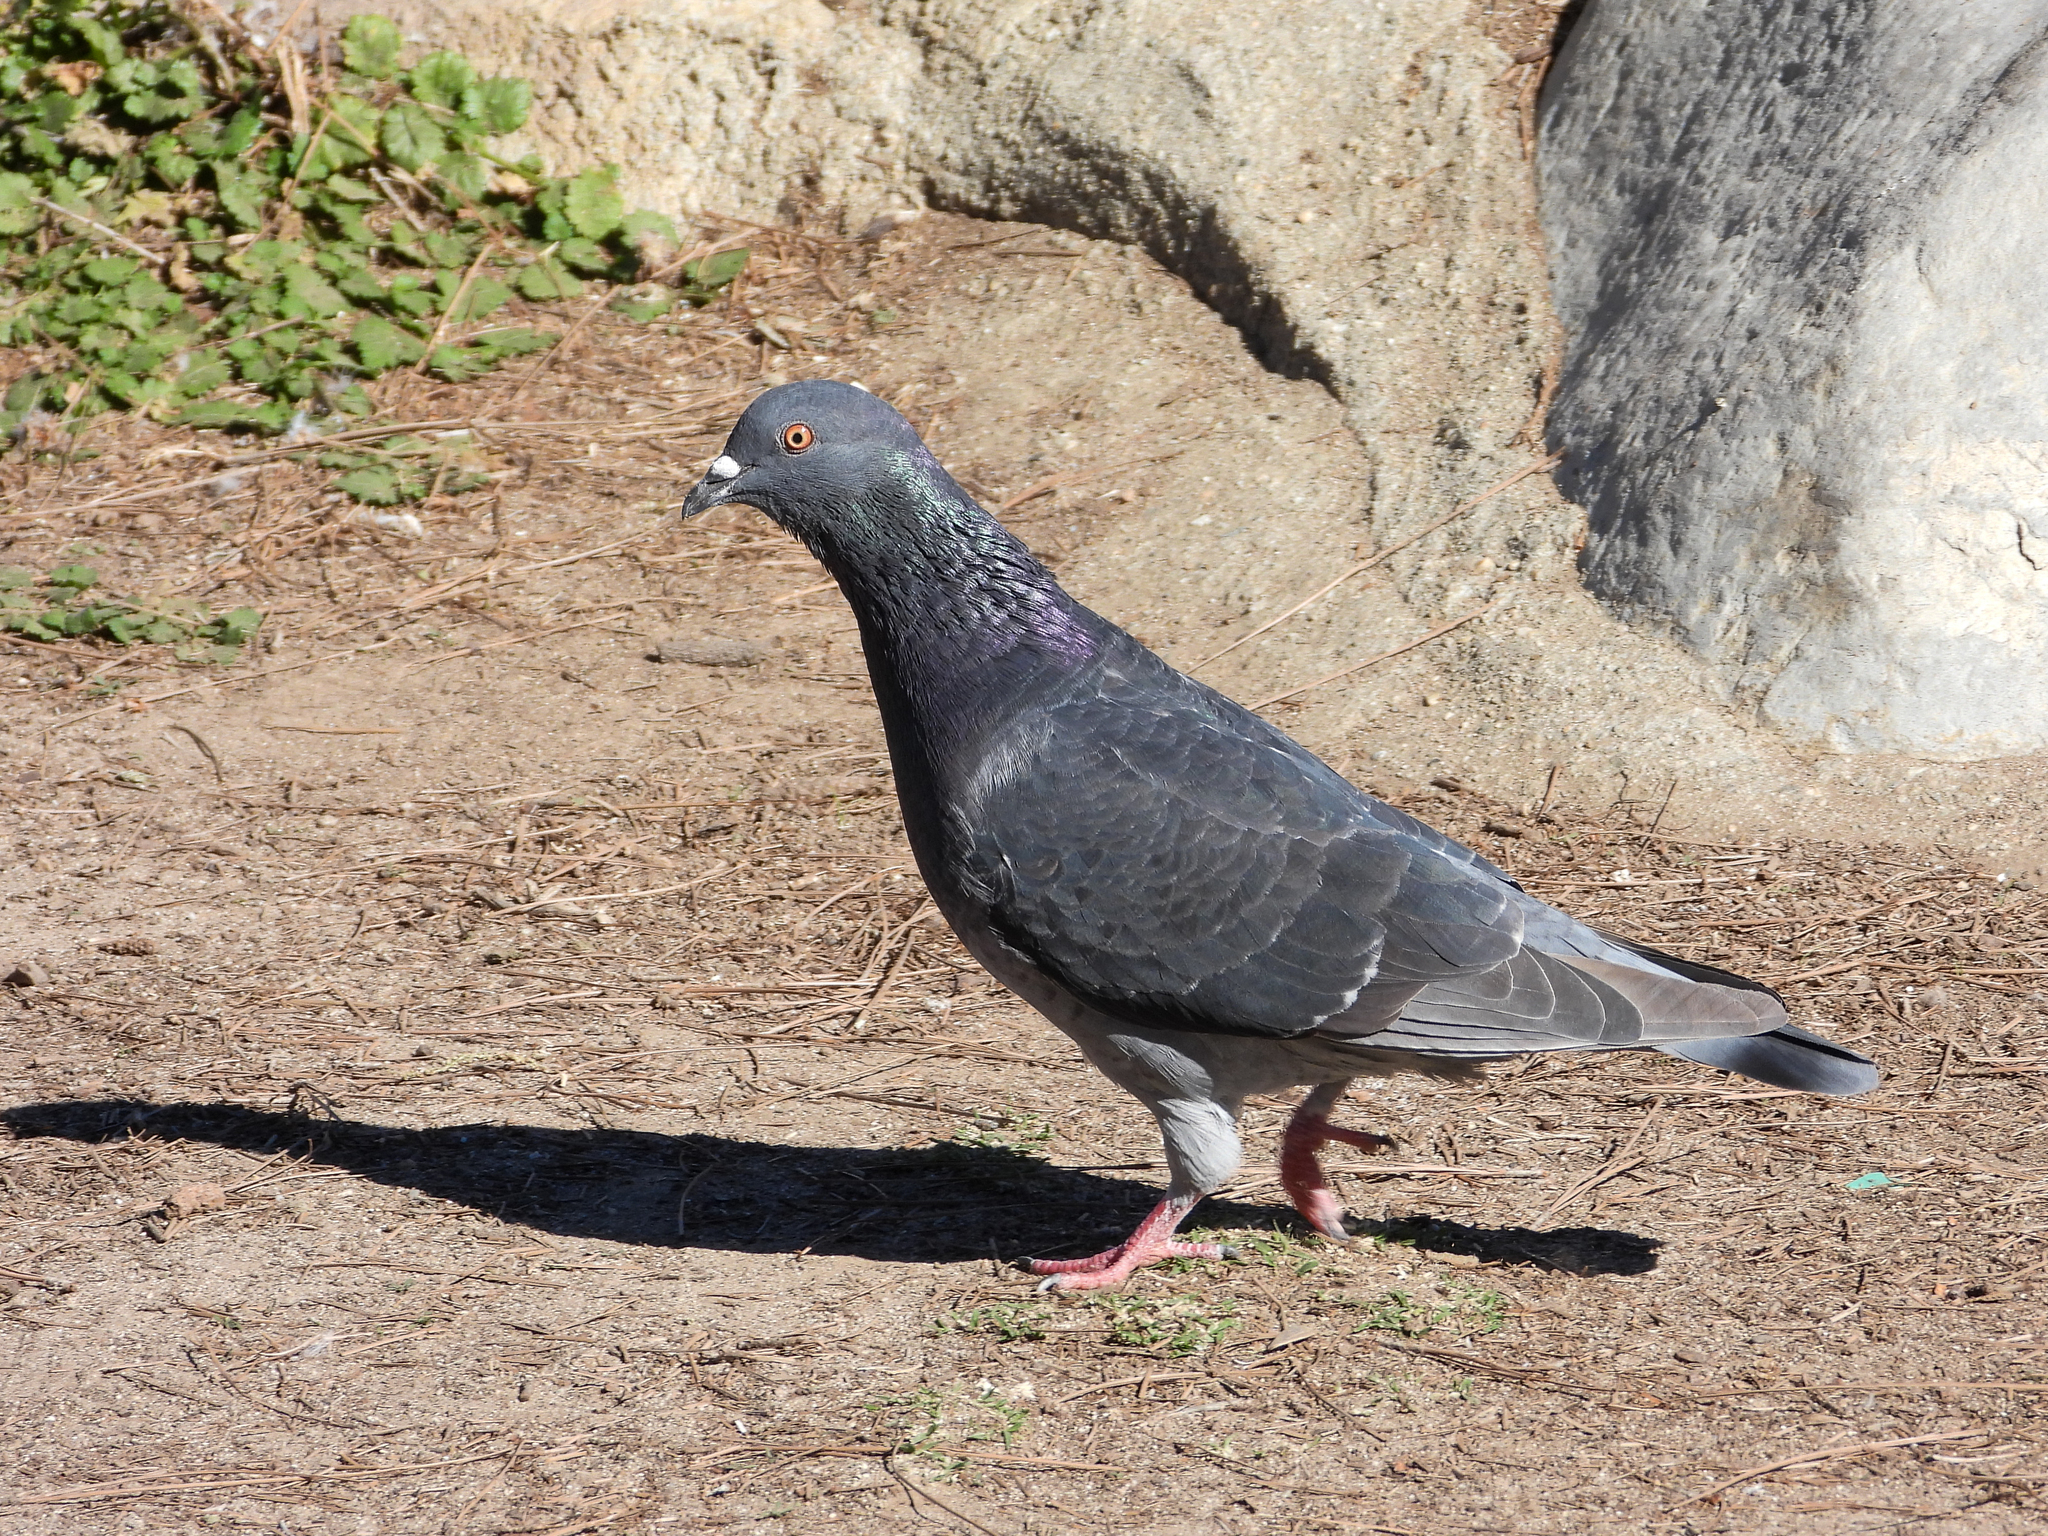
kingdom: Animalia
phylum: Chordata
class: Aves
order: Columbiformes
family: Columbidae
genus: Columba
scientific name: Columba livia
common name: Rock pigeon
